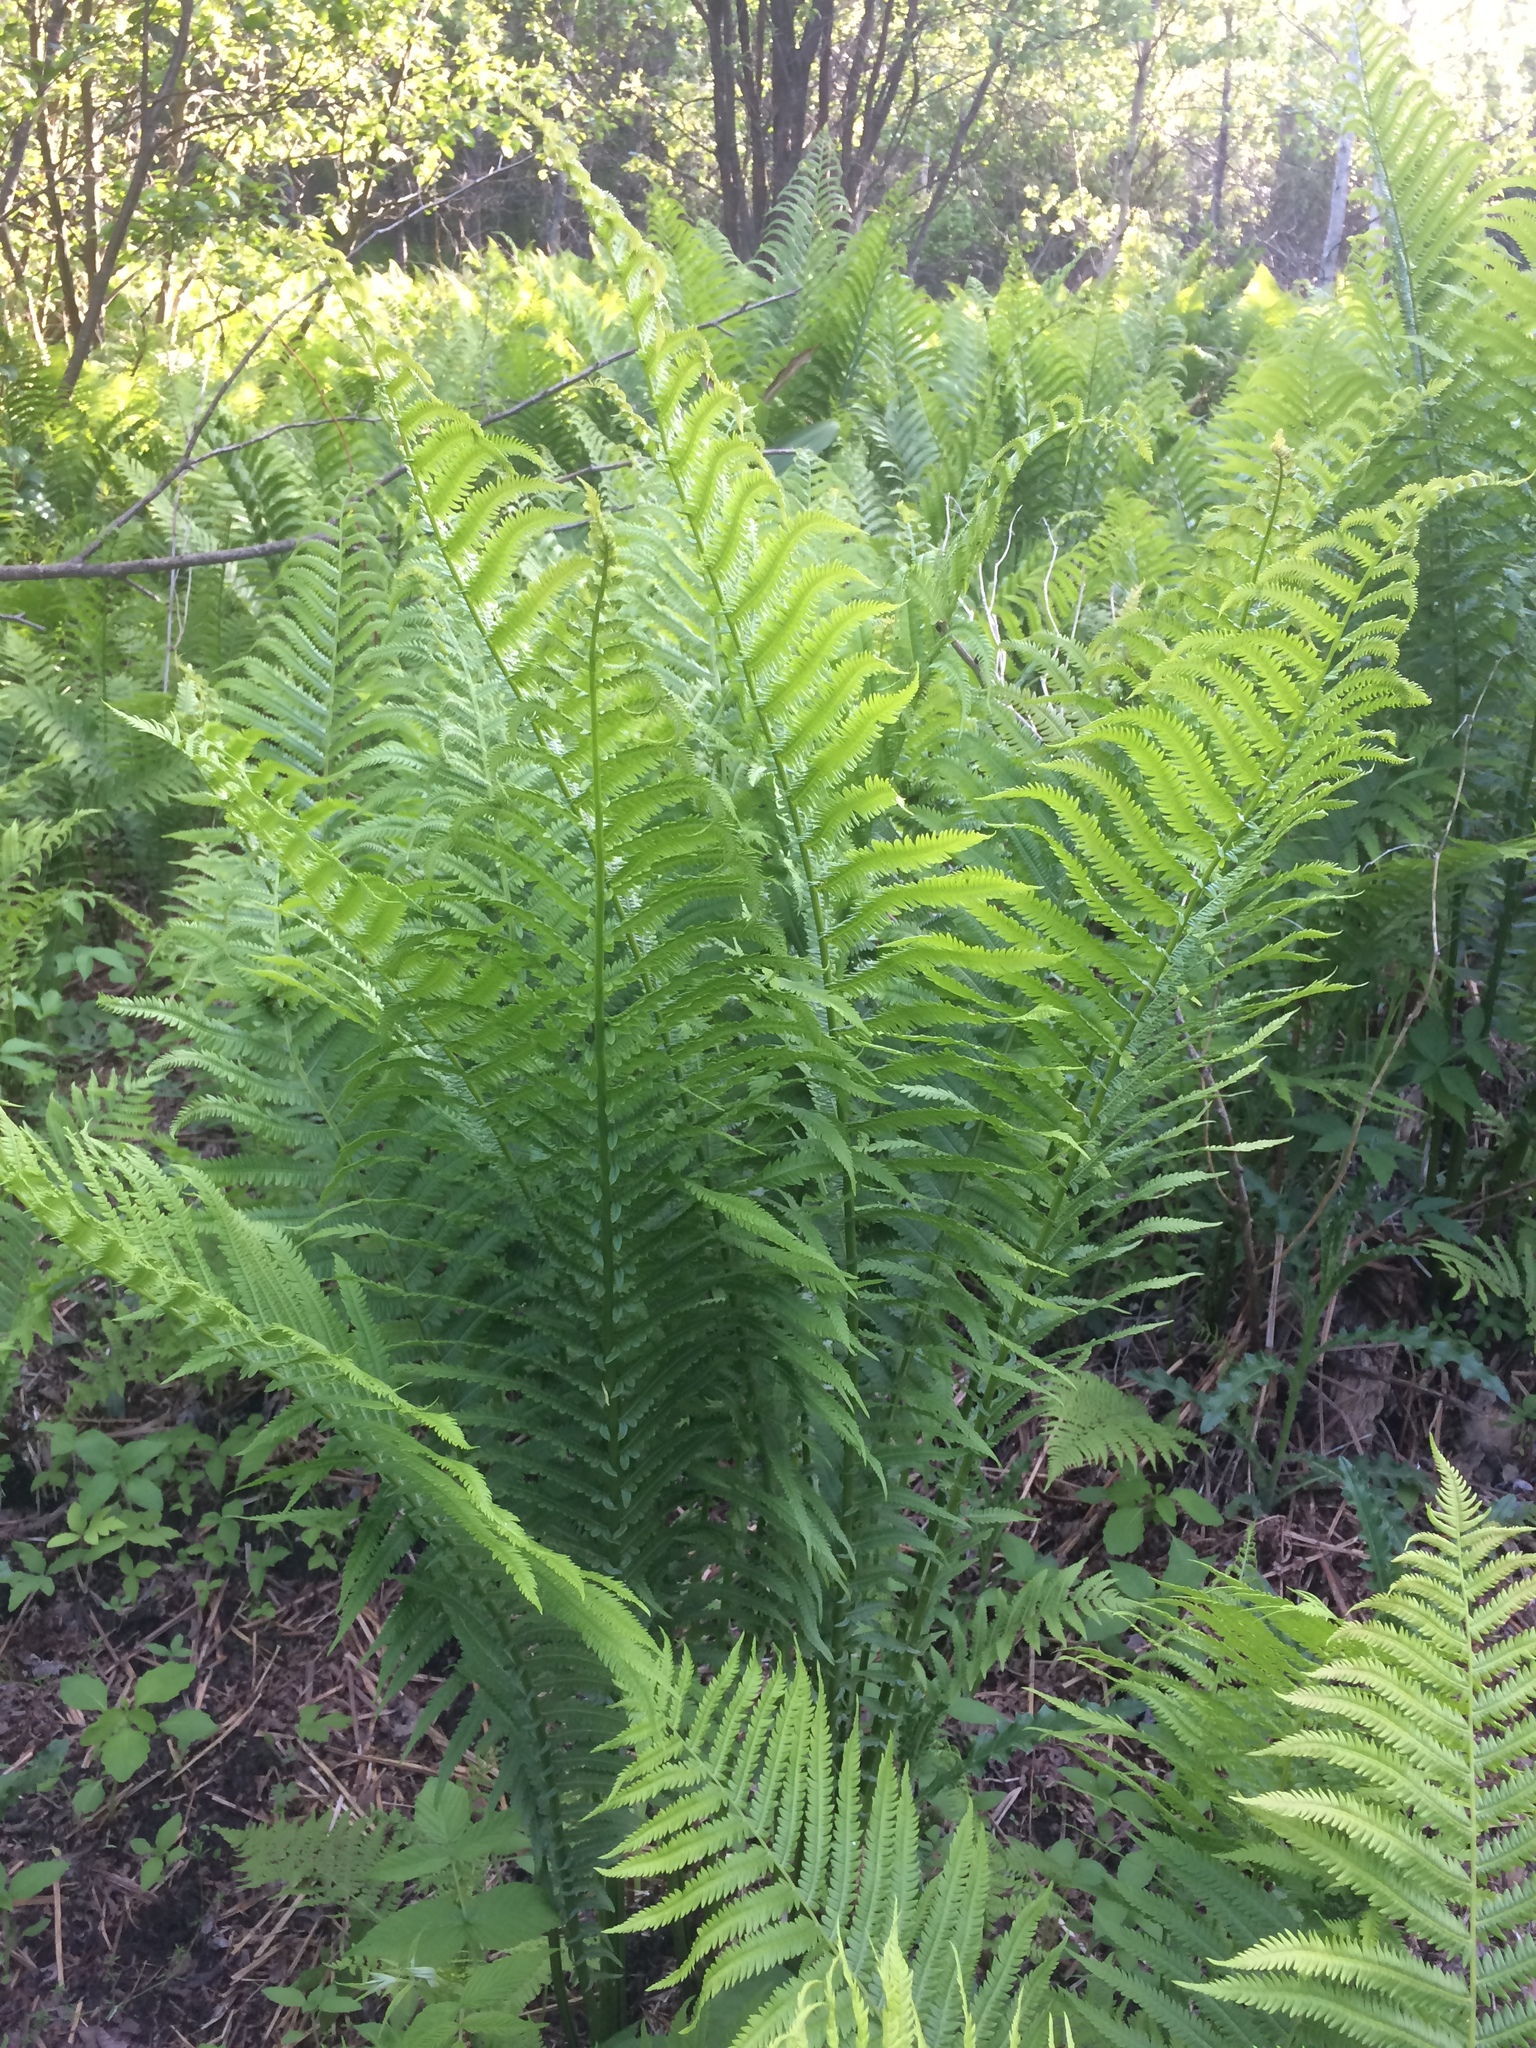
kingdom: Plantae
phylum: Tracheophyta
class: Polypodiopsida
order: Polypodiales
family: Onocleaceae
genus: Matteuccia
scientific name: Matteuccia struthiopteris
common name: Ostrich fern
